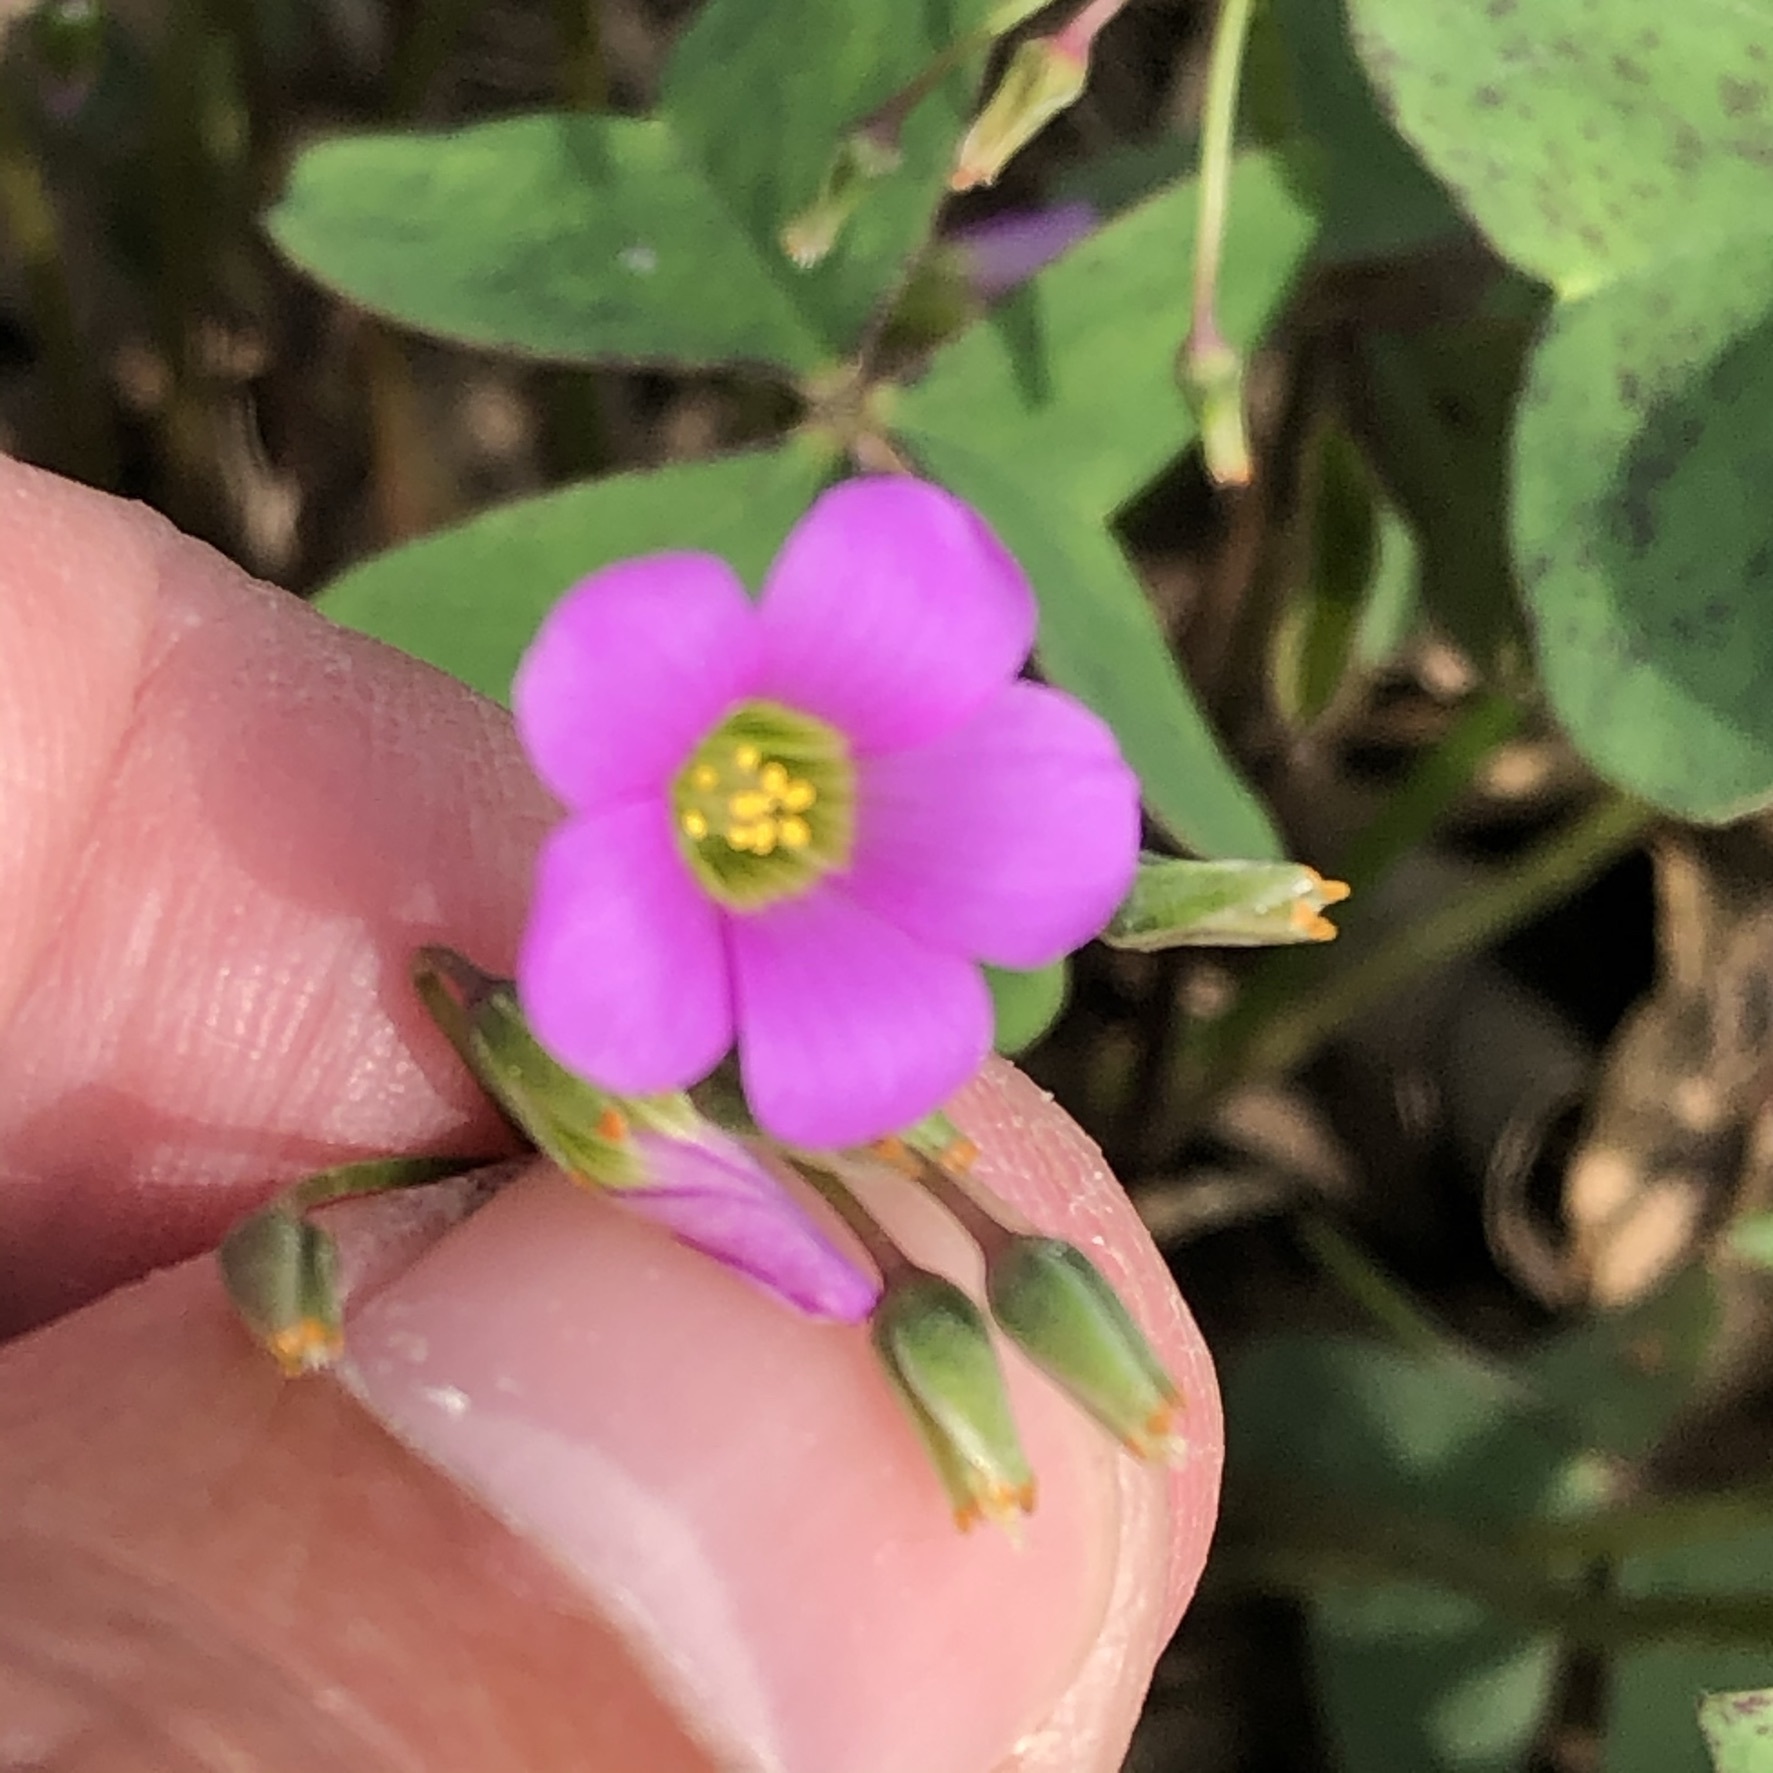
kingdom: Plantae
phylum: Tracheophyta
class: Magnoliopsida
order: Oxalidales
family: Oxalidaceae
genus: Oxalis
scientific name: Oxalis latifolia
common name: Garden pink-sorrel
